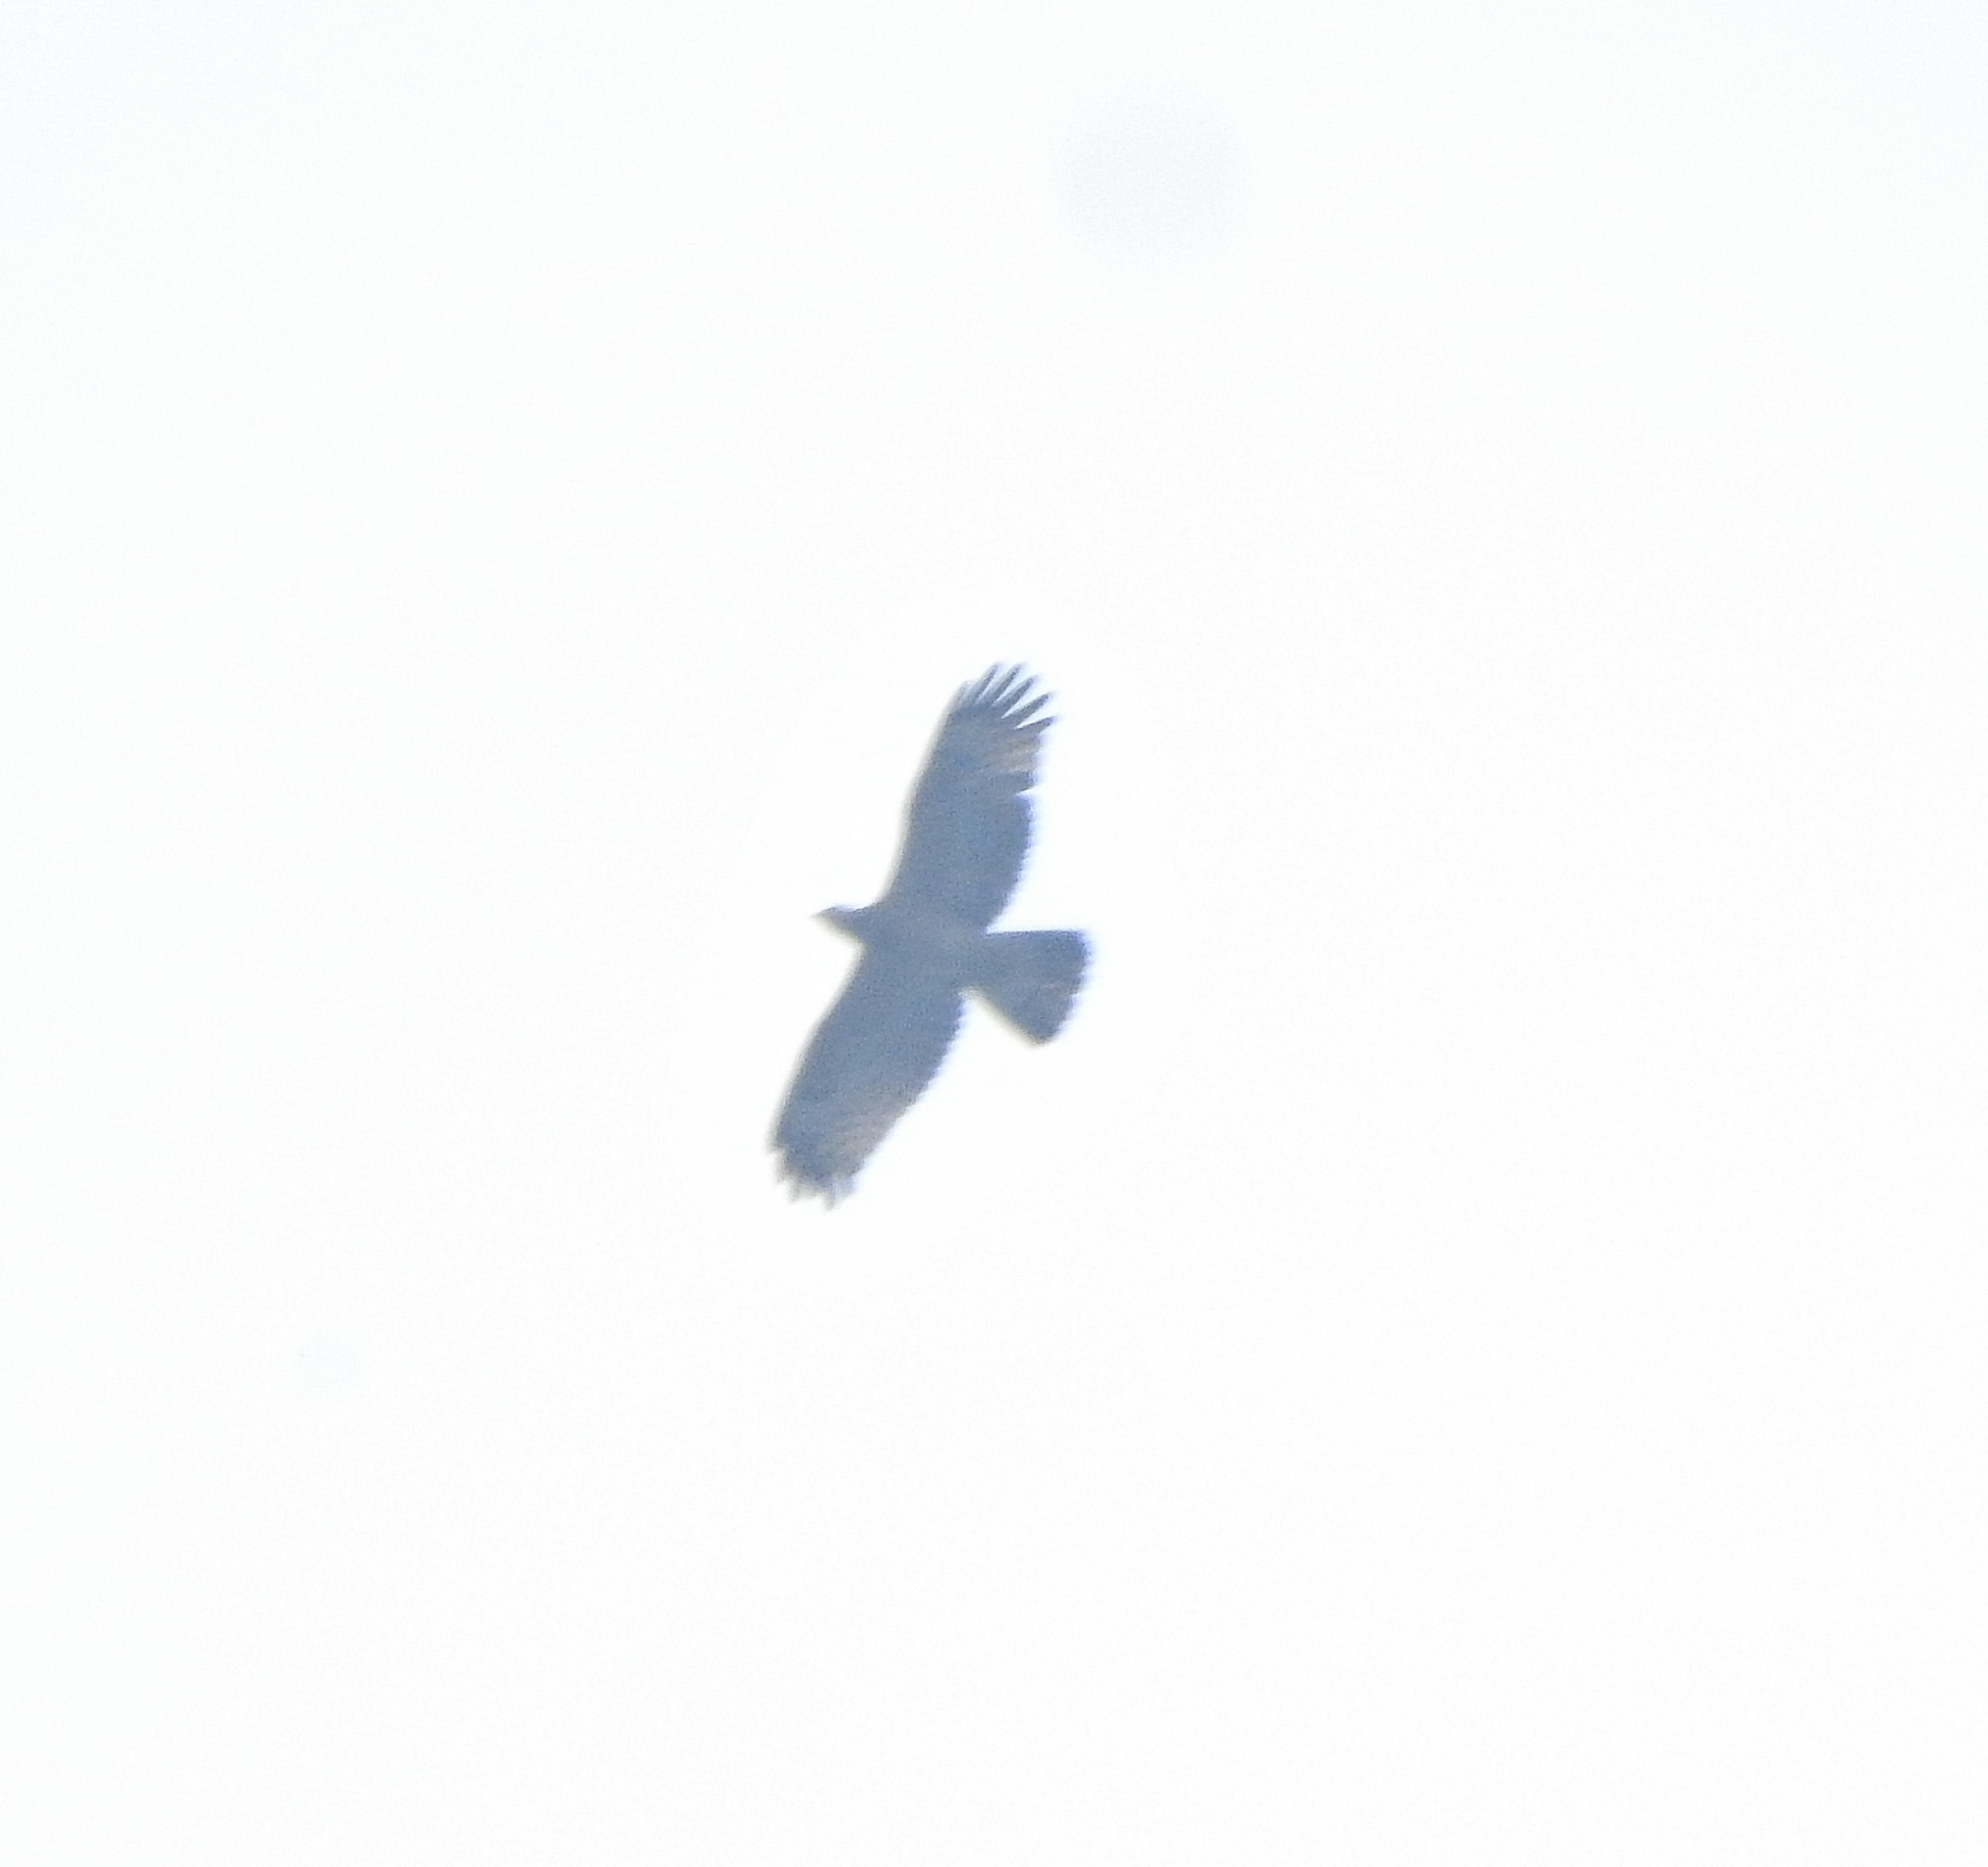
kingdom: Animalia
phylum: Chordata
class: Aves
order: Accipitriformes
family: Accipitridae
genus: Pernis
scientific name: Pernis ptilorhynchus
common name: Crested honey buzzard
